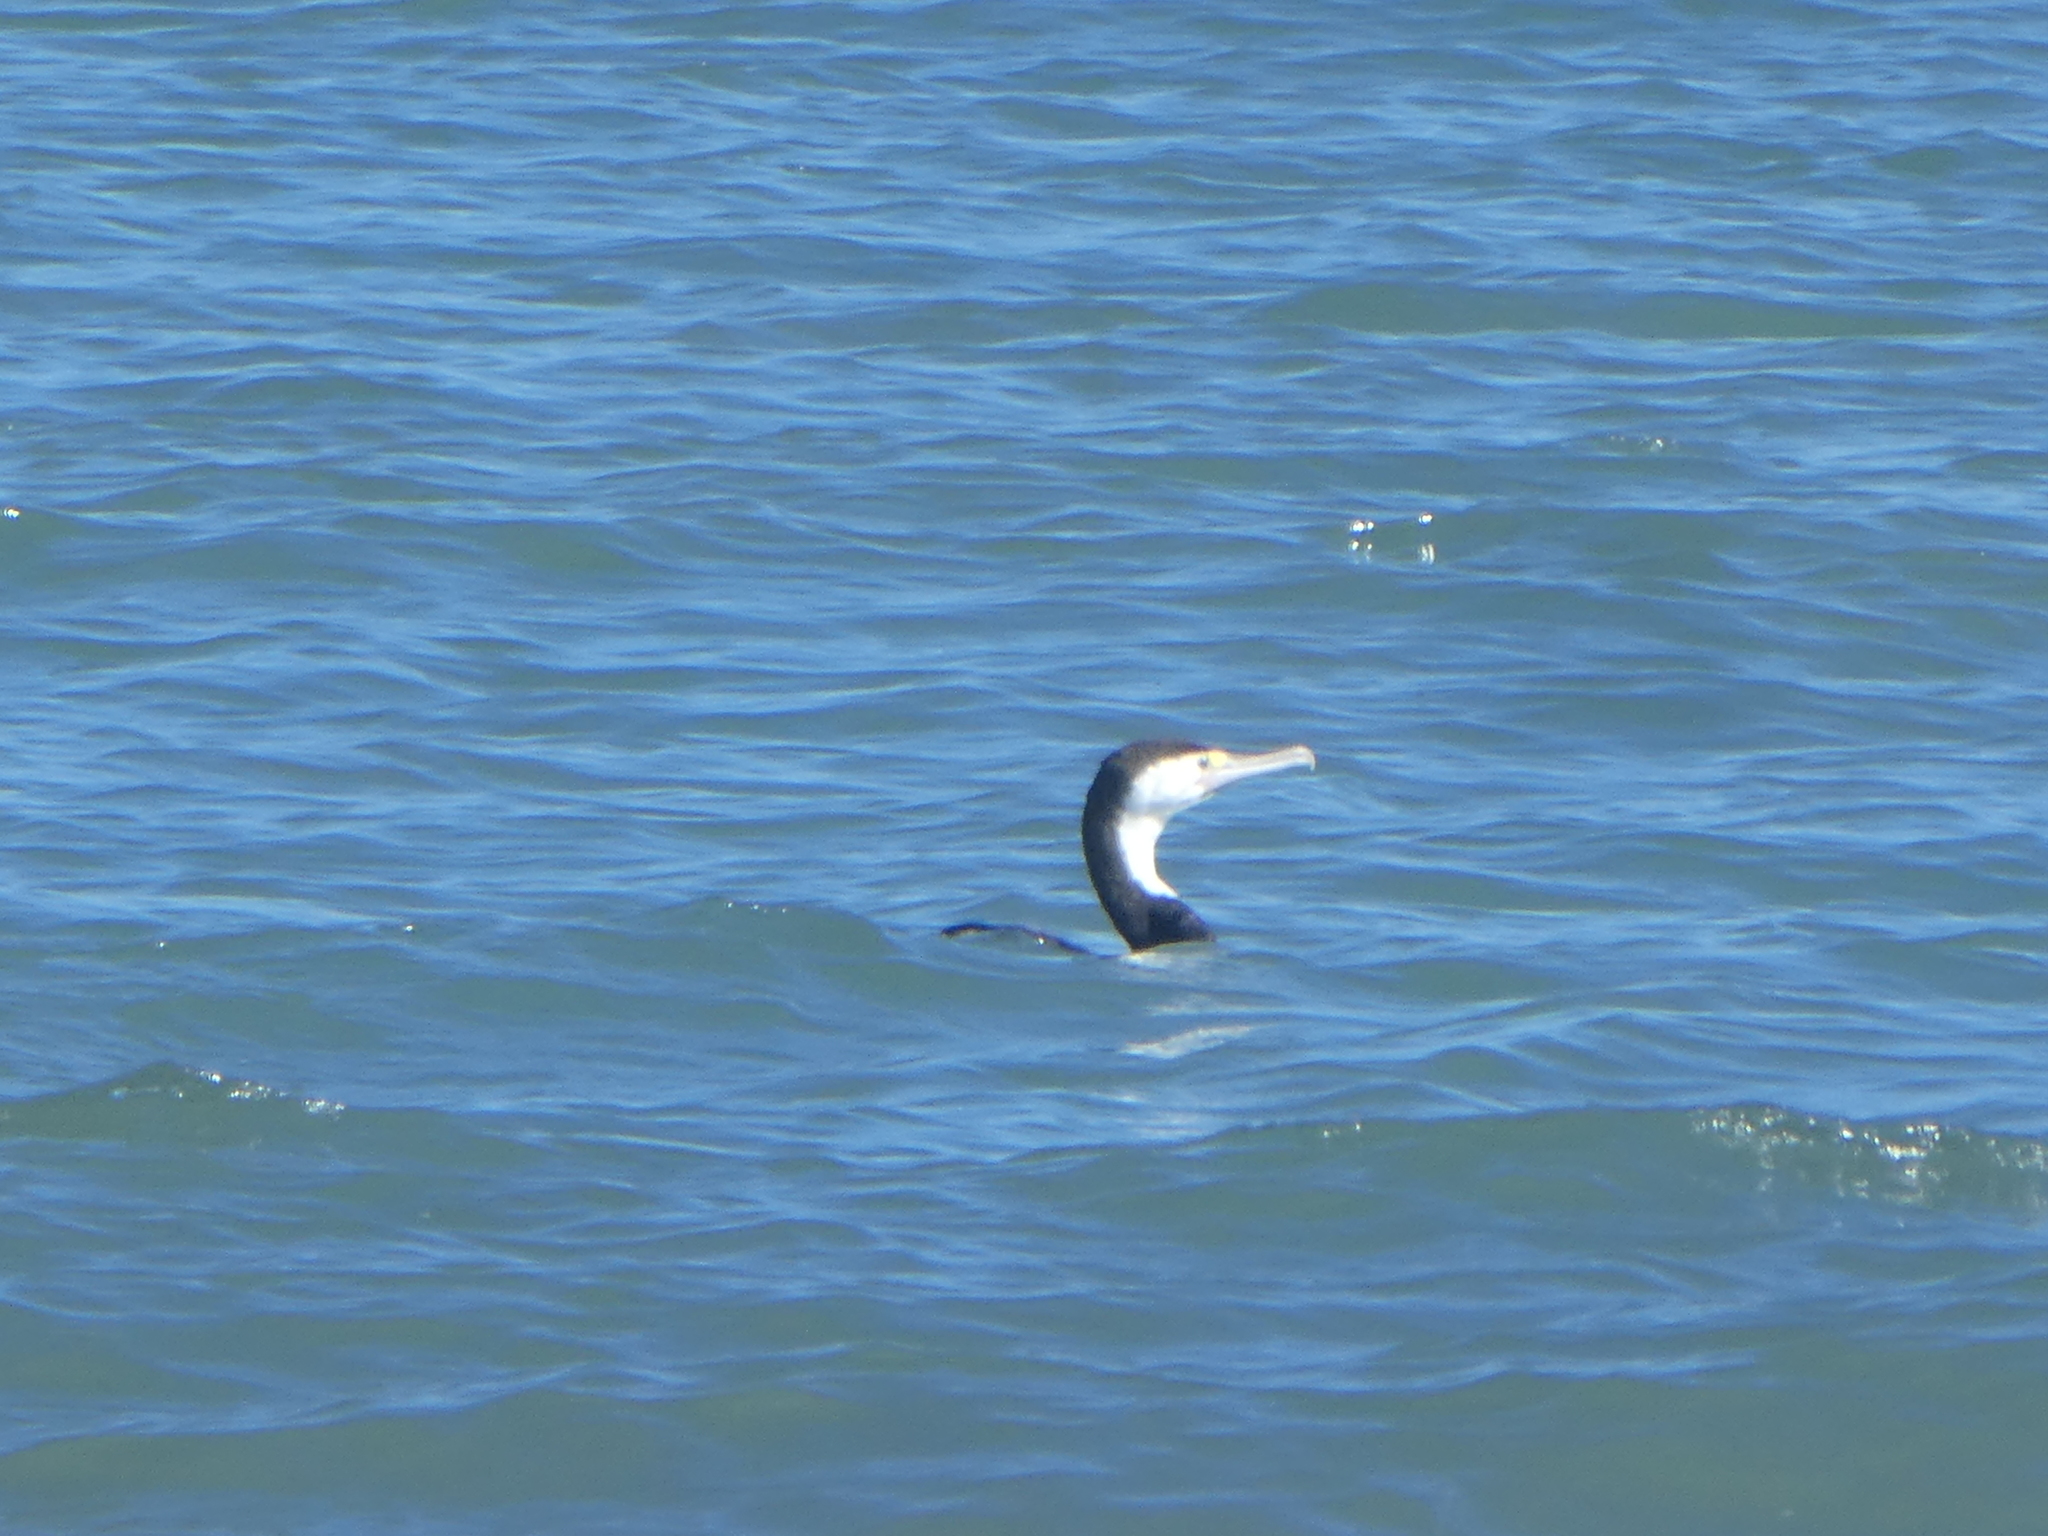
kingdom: Animalia
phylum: Chordata
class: Aves
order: Suliformes
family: Phalacrocoracidae
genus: Phalacrocorax
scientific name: Phalacrocorax varius
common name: Pied cormorant
